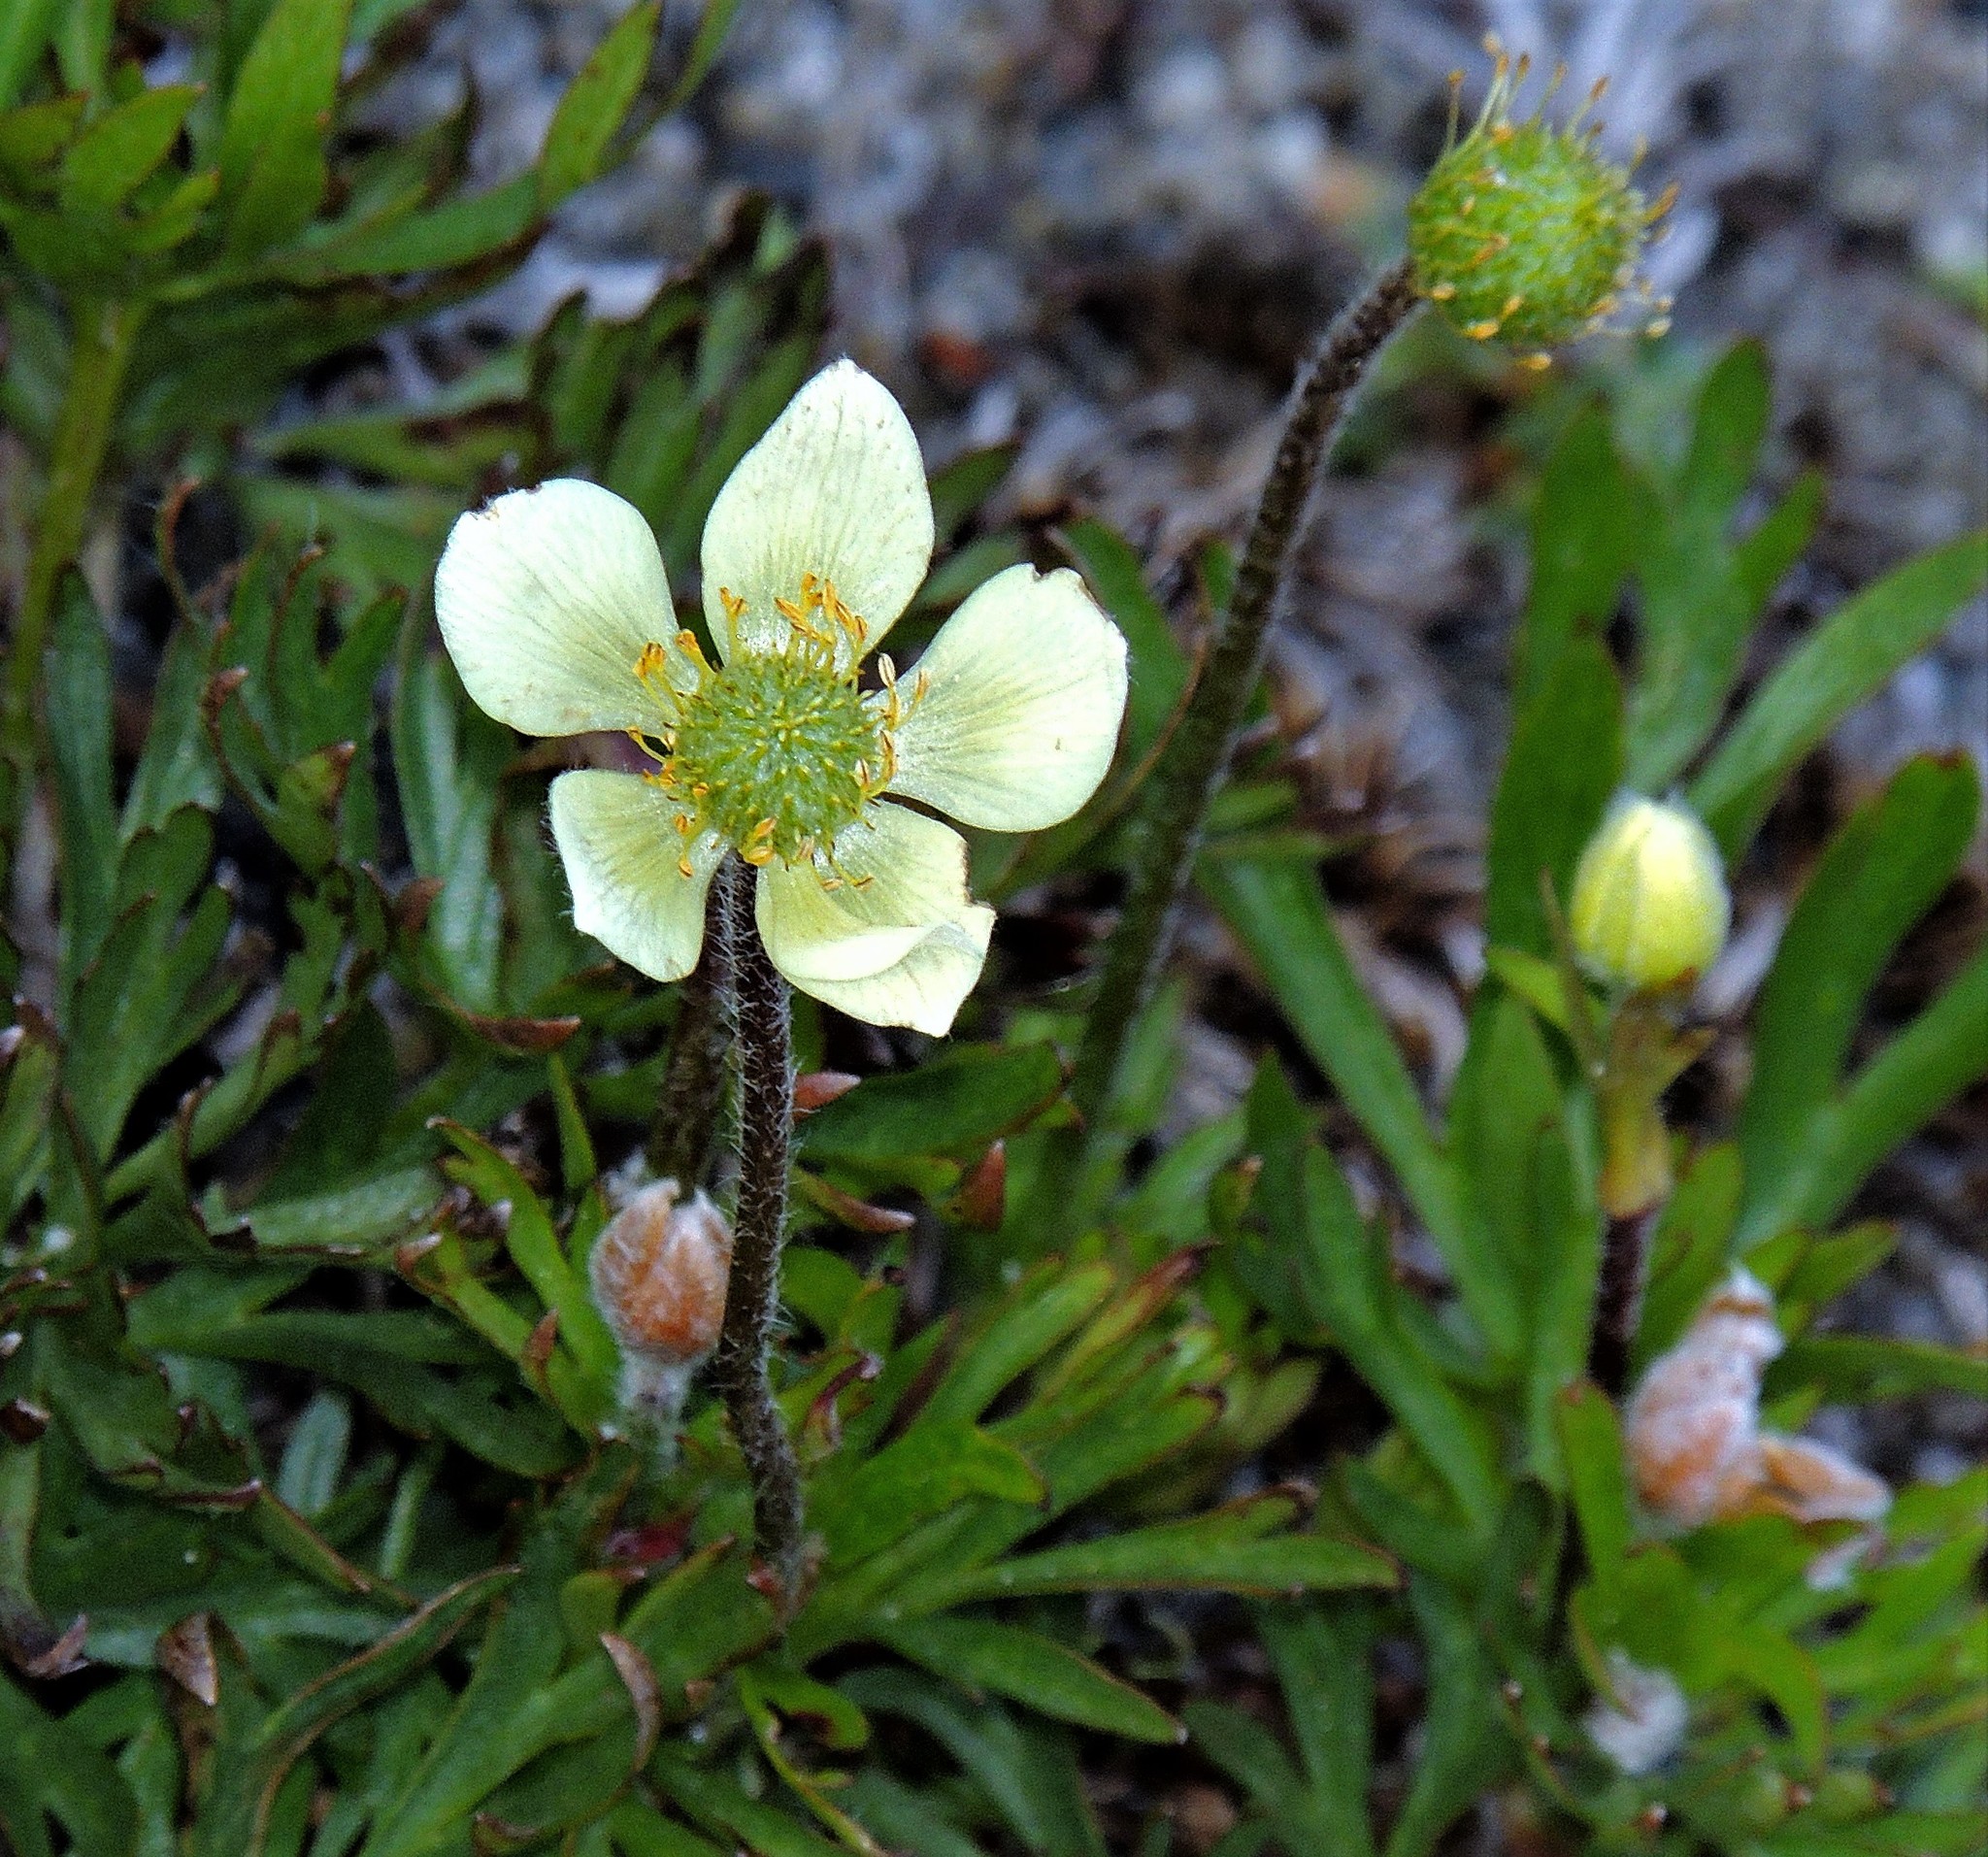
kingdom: Plantae
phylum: Tracheophyta
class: Magnoliopsida
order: Ranunculales
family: Ranunculaceae
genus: Anemone
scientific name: Anemone multifida
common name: Bird's-foot anemone
